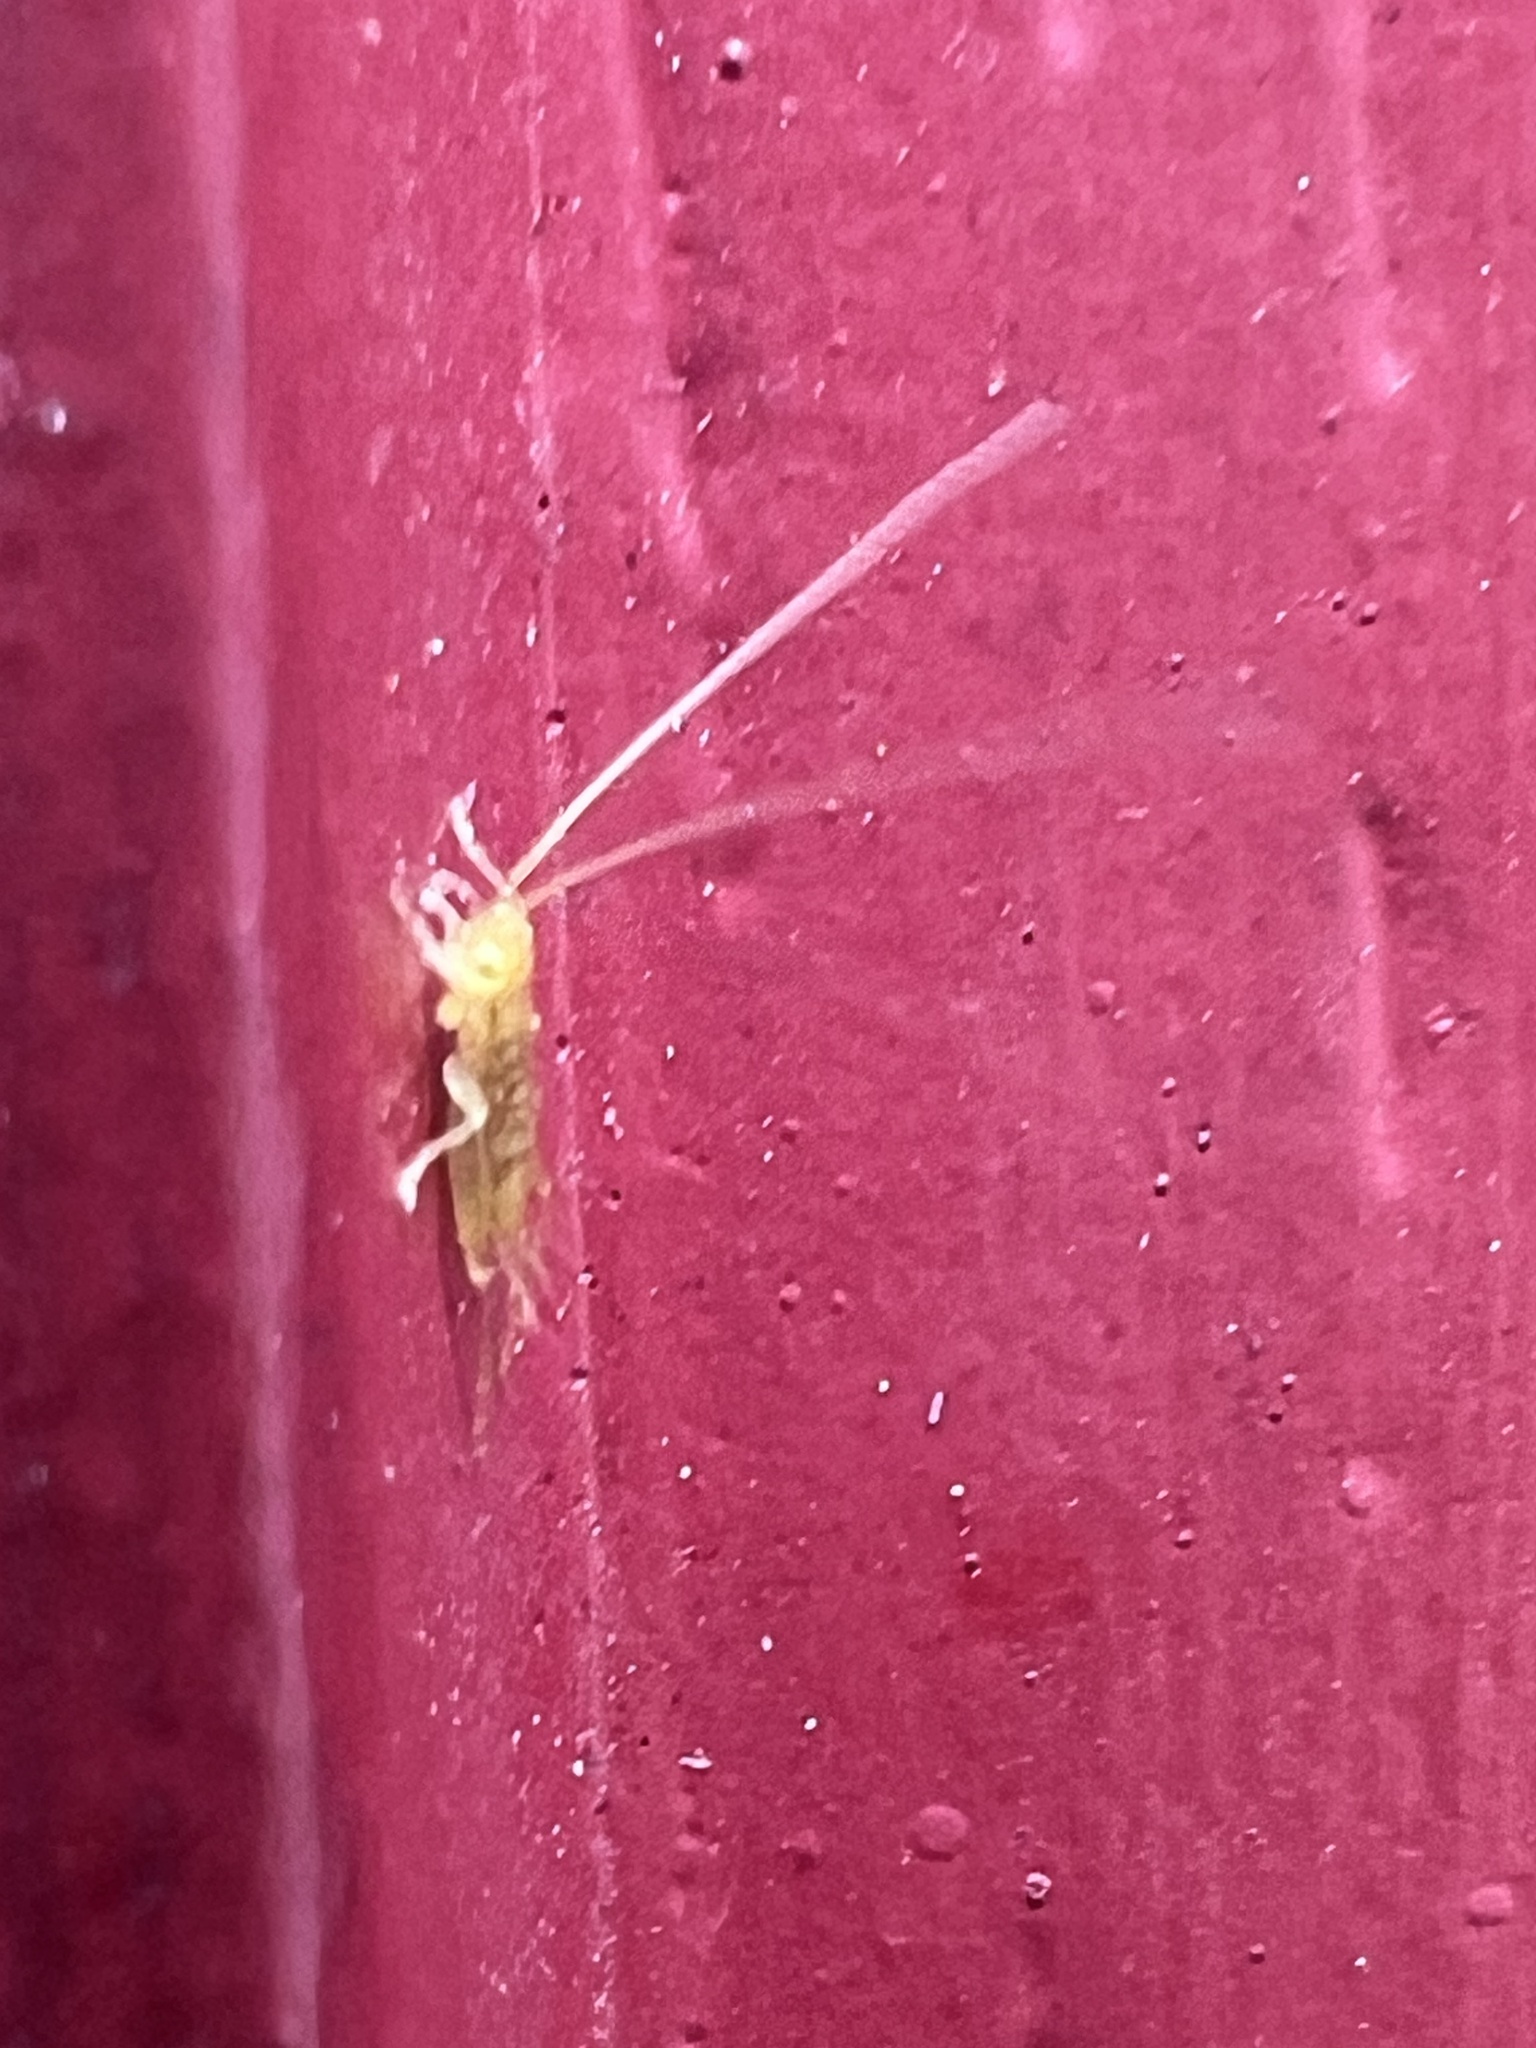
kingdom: Animalia
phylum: Arthropoda
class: Insecta
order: Orthoptera
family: Trigonidiidae
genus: Cyrtoxipha
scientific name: Cyrtoxipha columbiana
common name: Columbian trig
